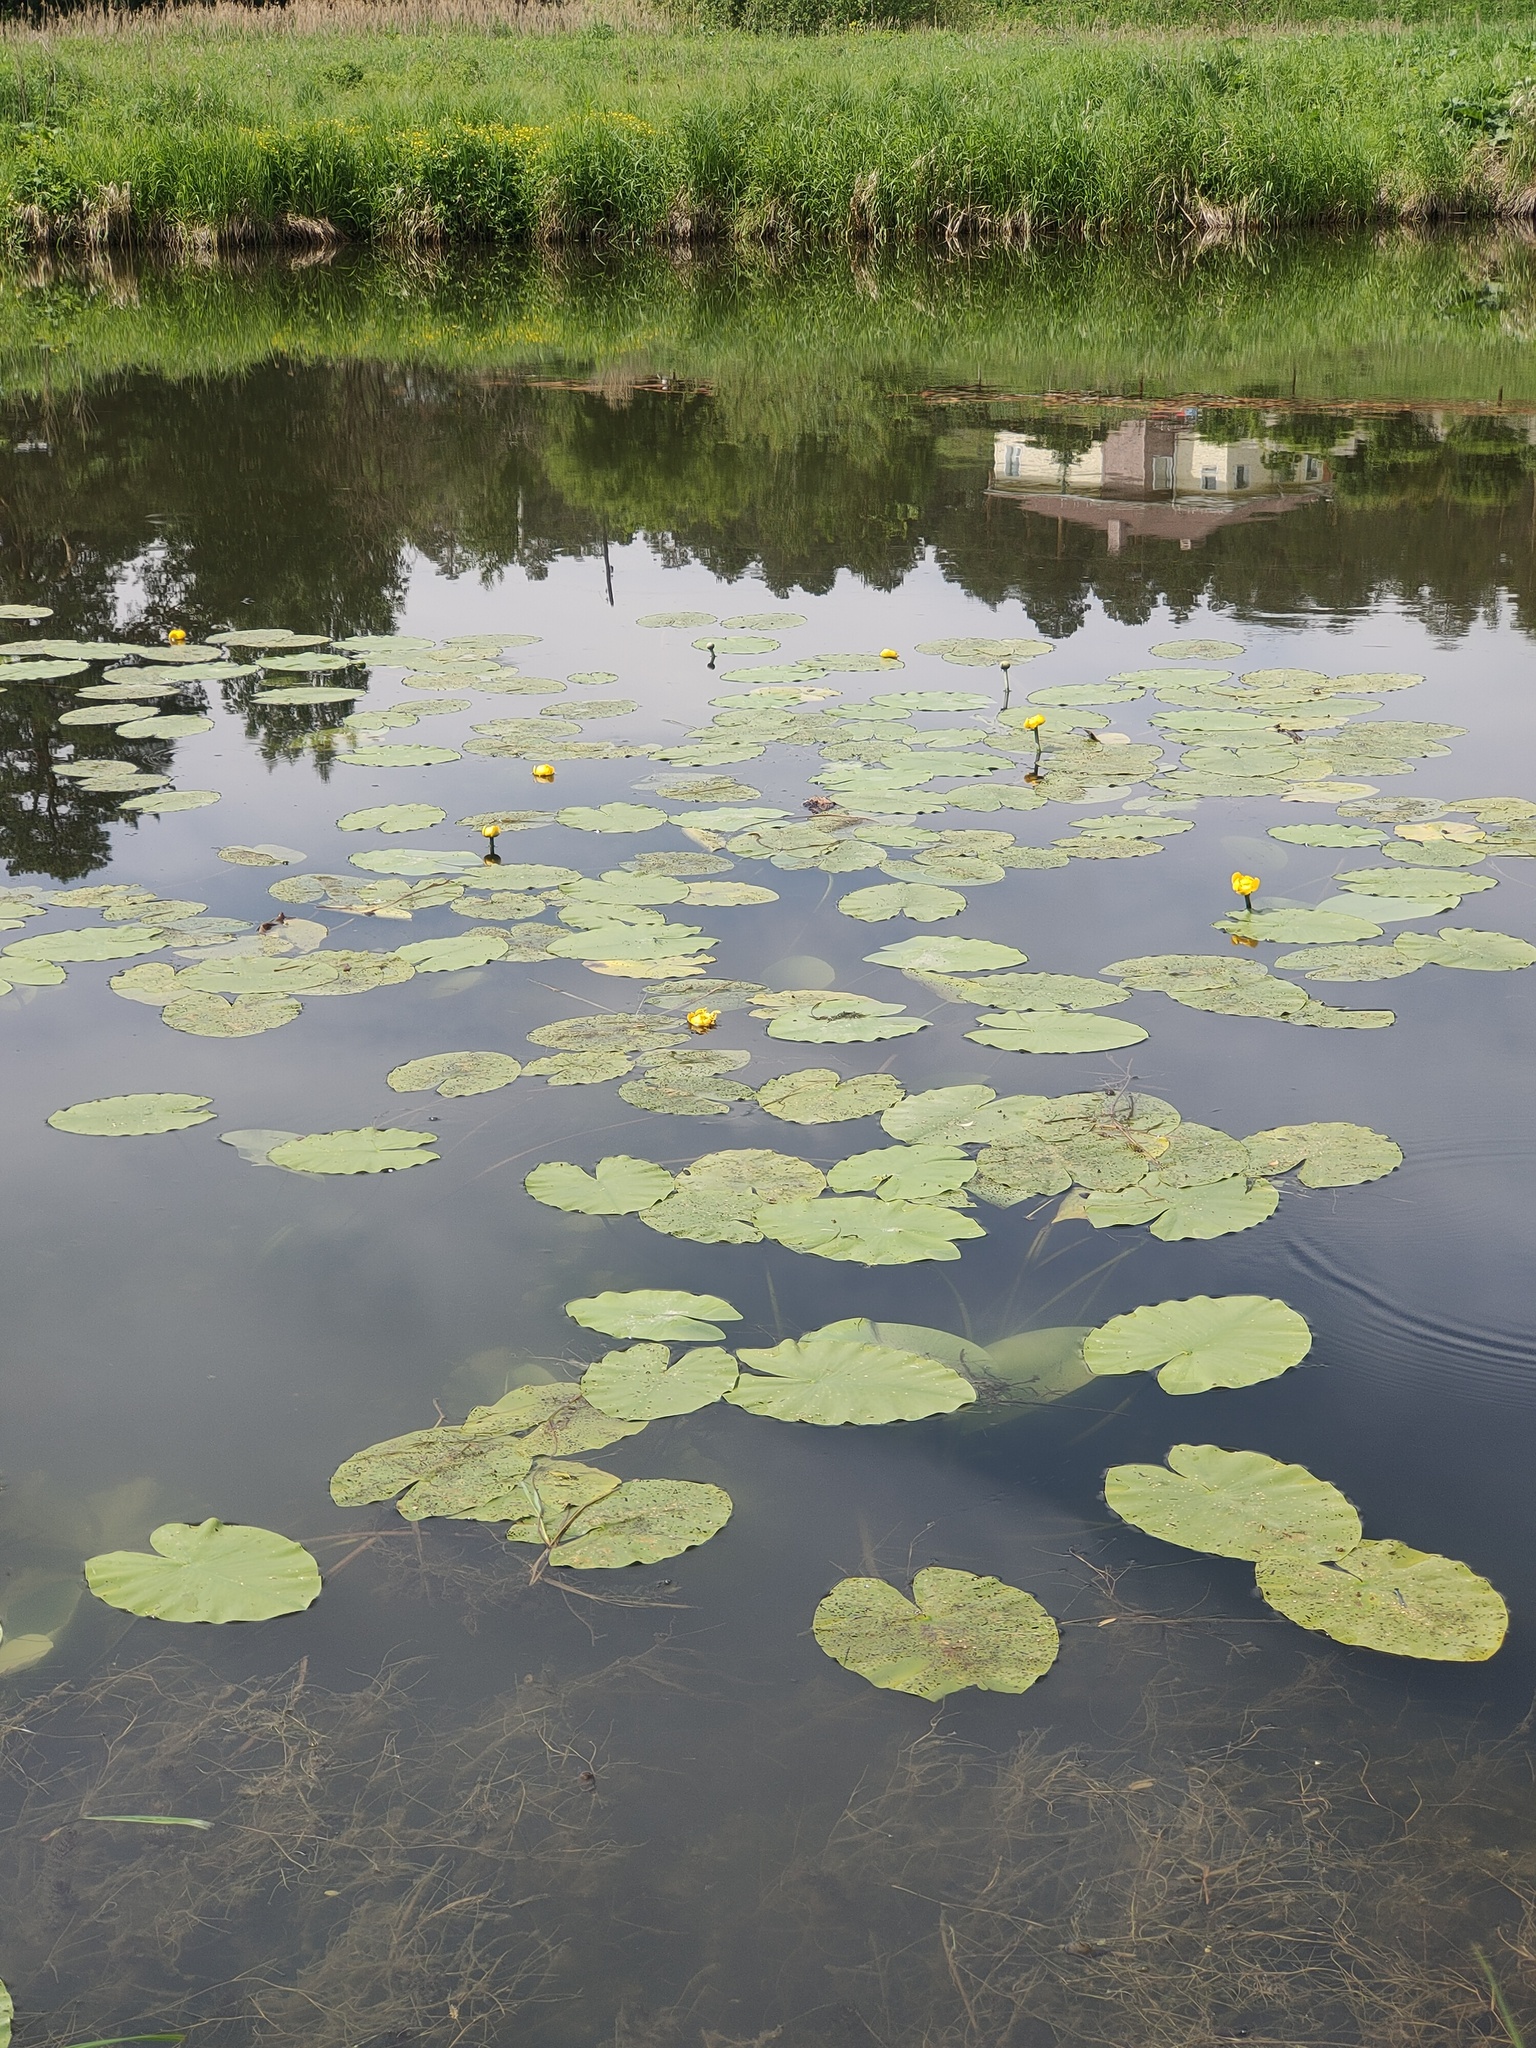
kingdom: Plantae
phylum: Tracheophyta
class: Magnoliopsida
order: Nymphaeales
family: Nymphaeaceae
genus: Nuphar
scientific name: Nuphar lutea
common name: Yellow water-lily
